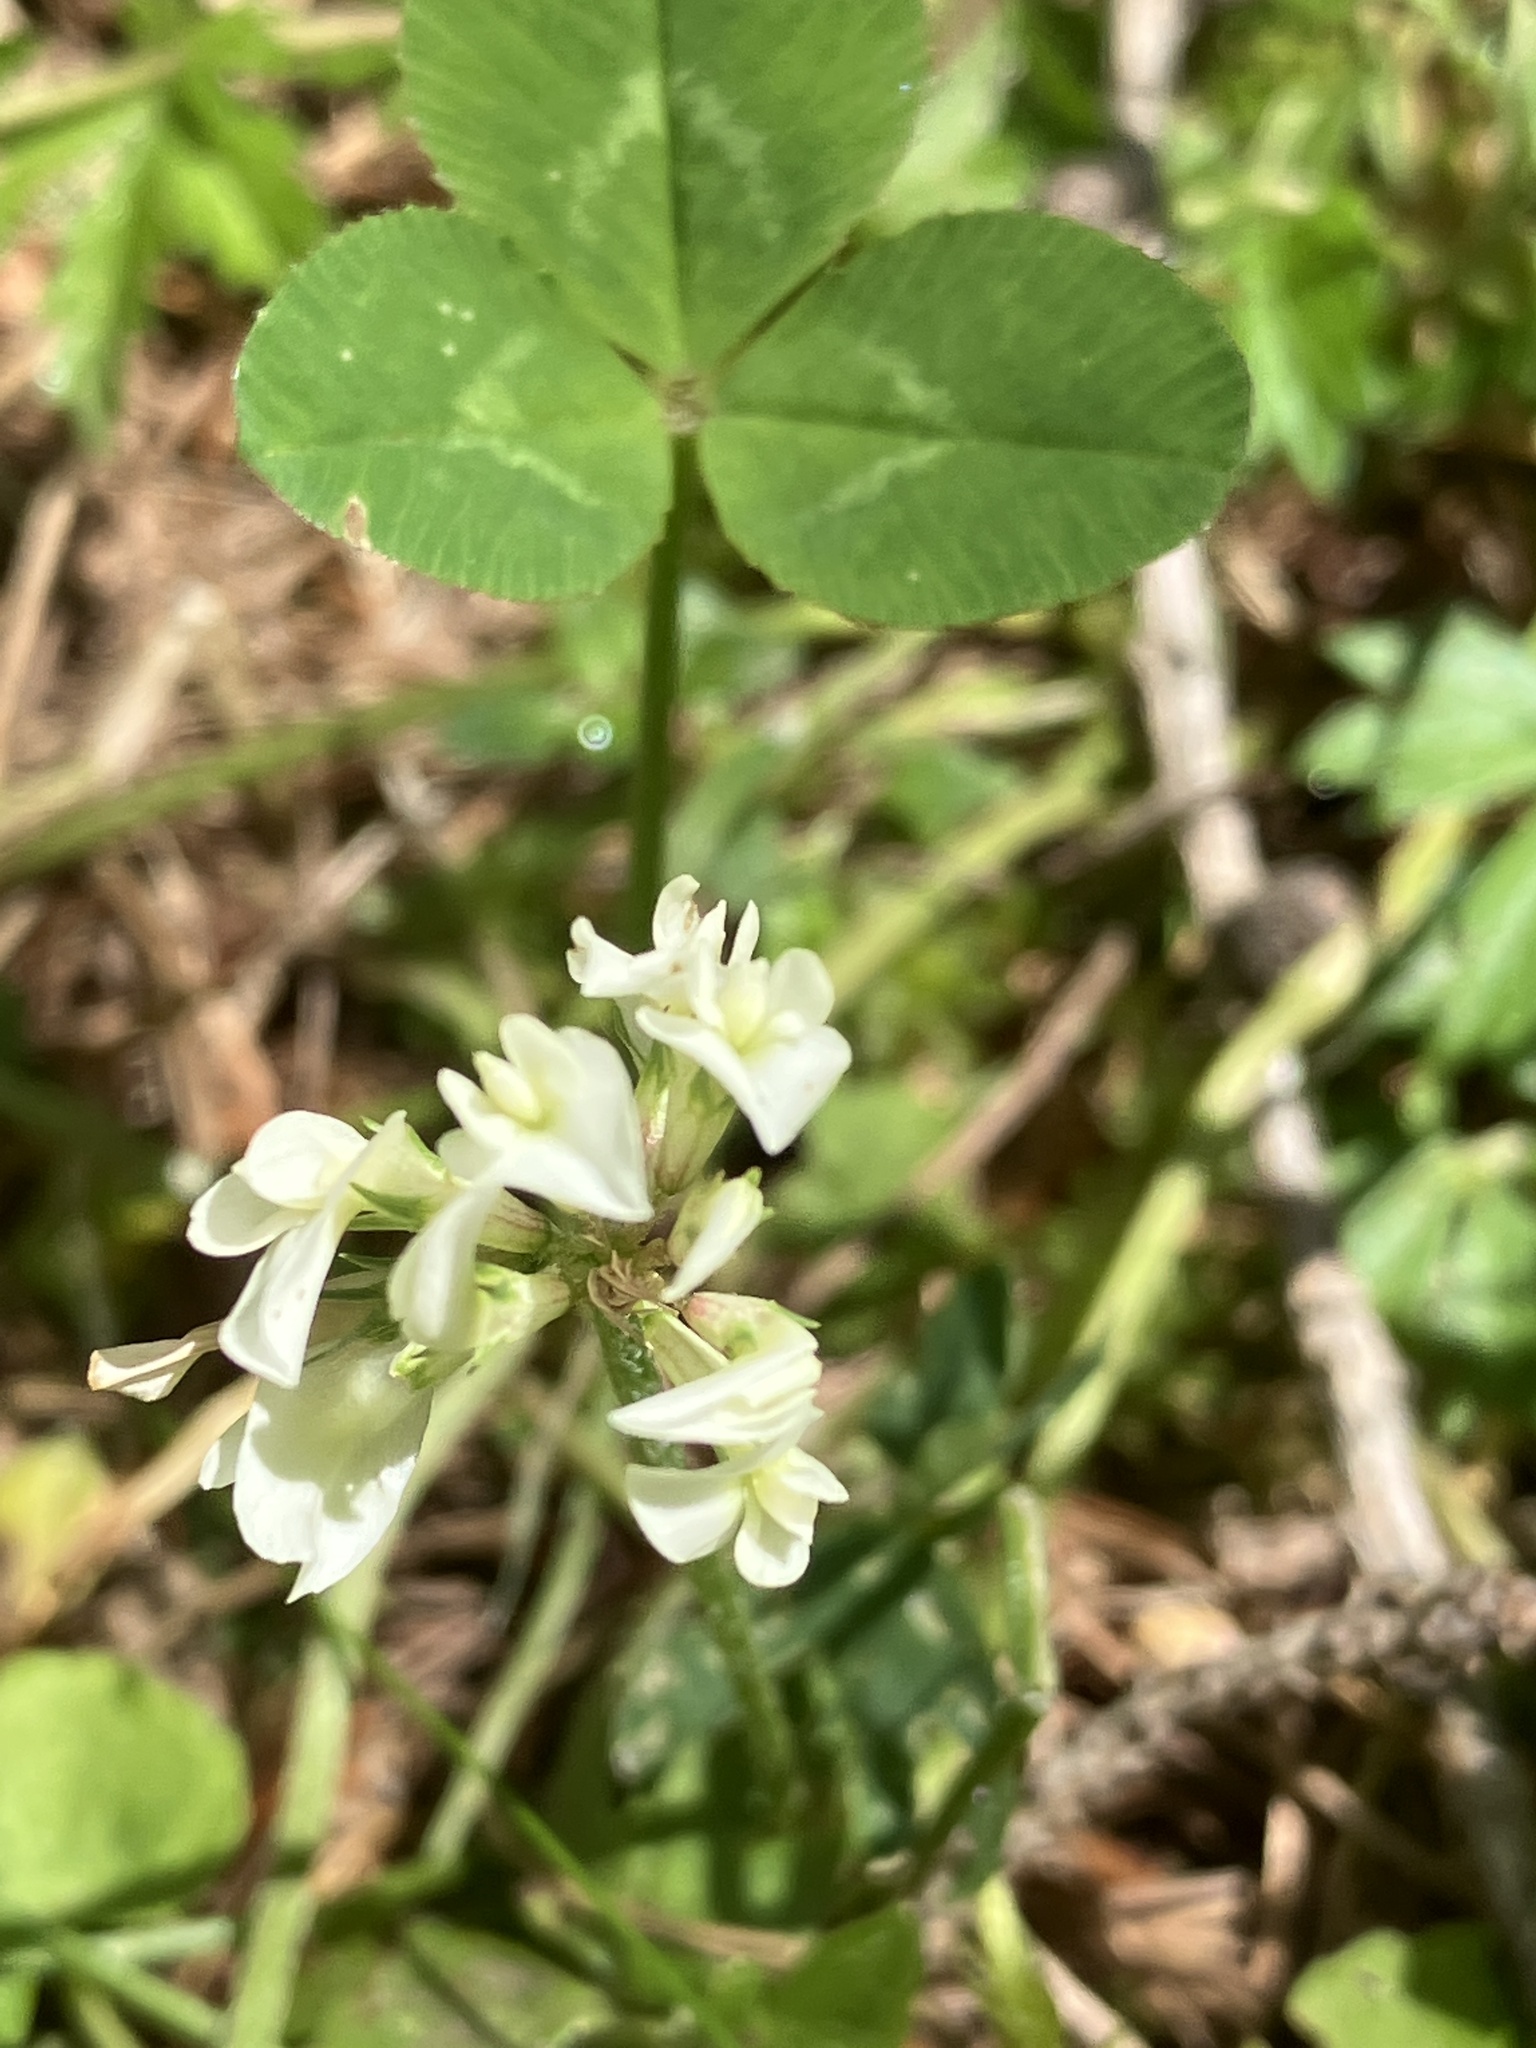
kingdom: Plantae
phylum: Tracheophyta
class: Magnoliopsida
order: Fabales
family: Fabaceae
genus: Trifolium
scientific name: Trifolium repens
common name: White clover
